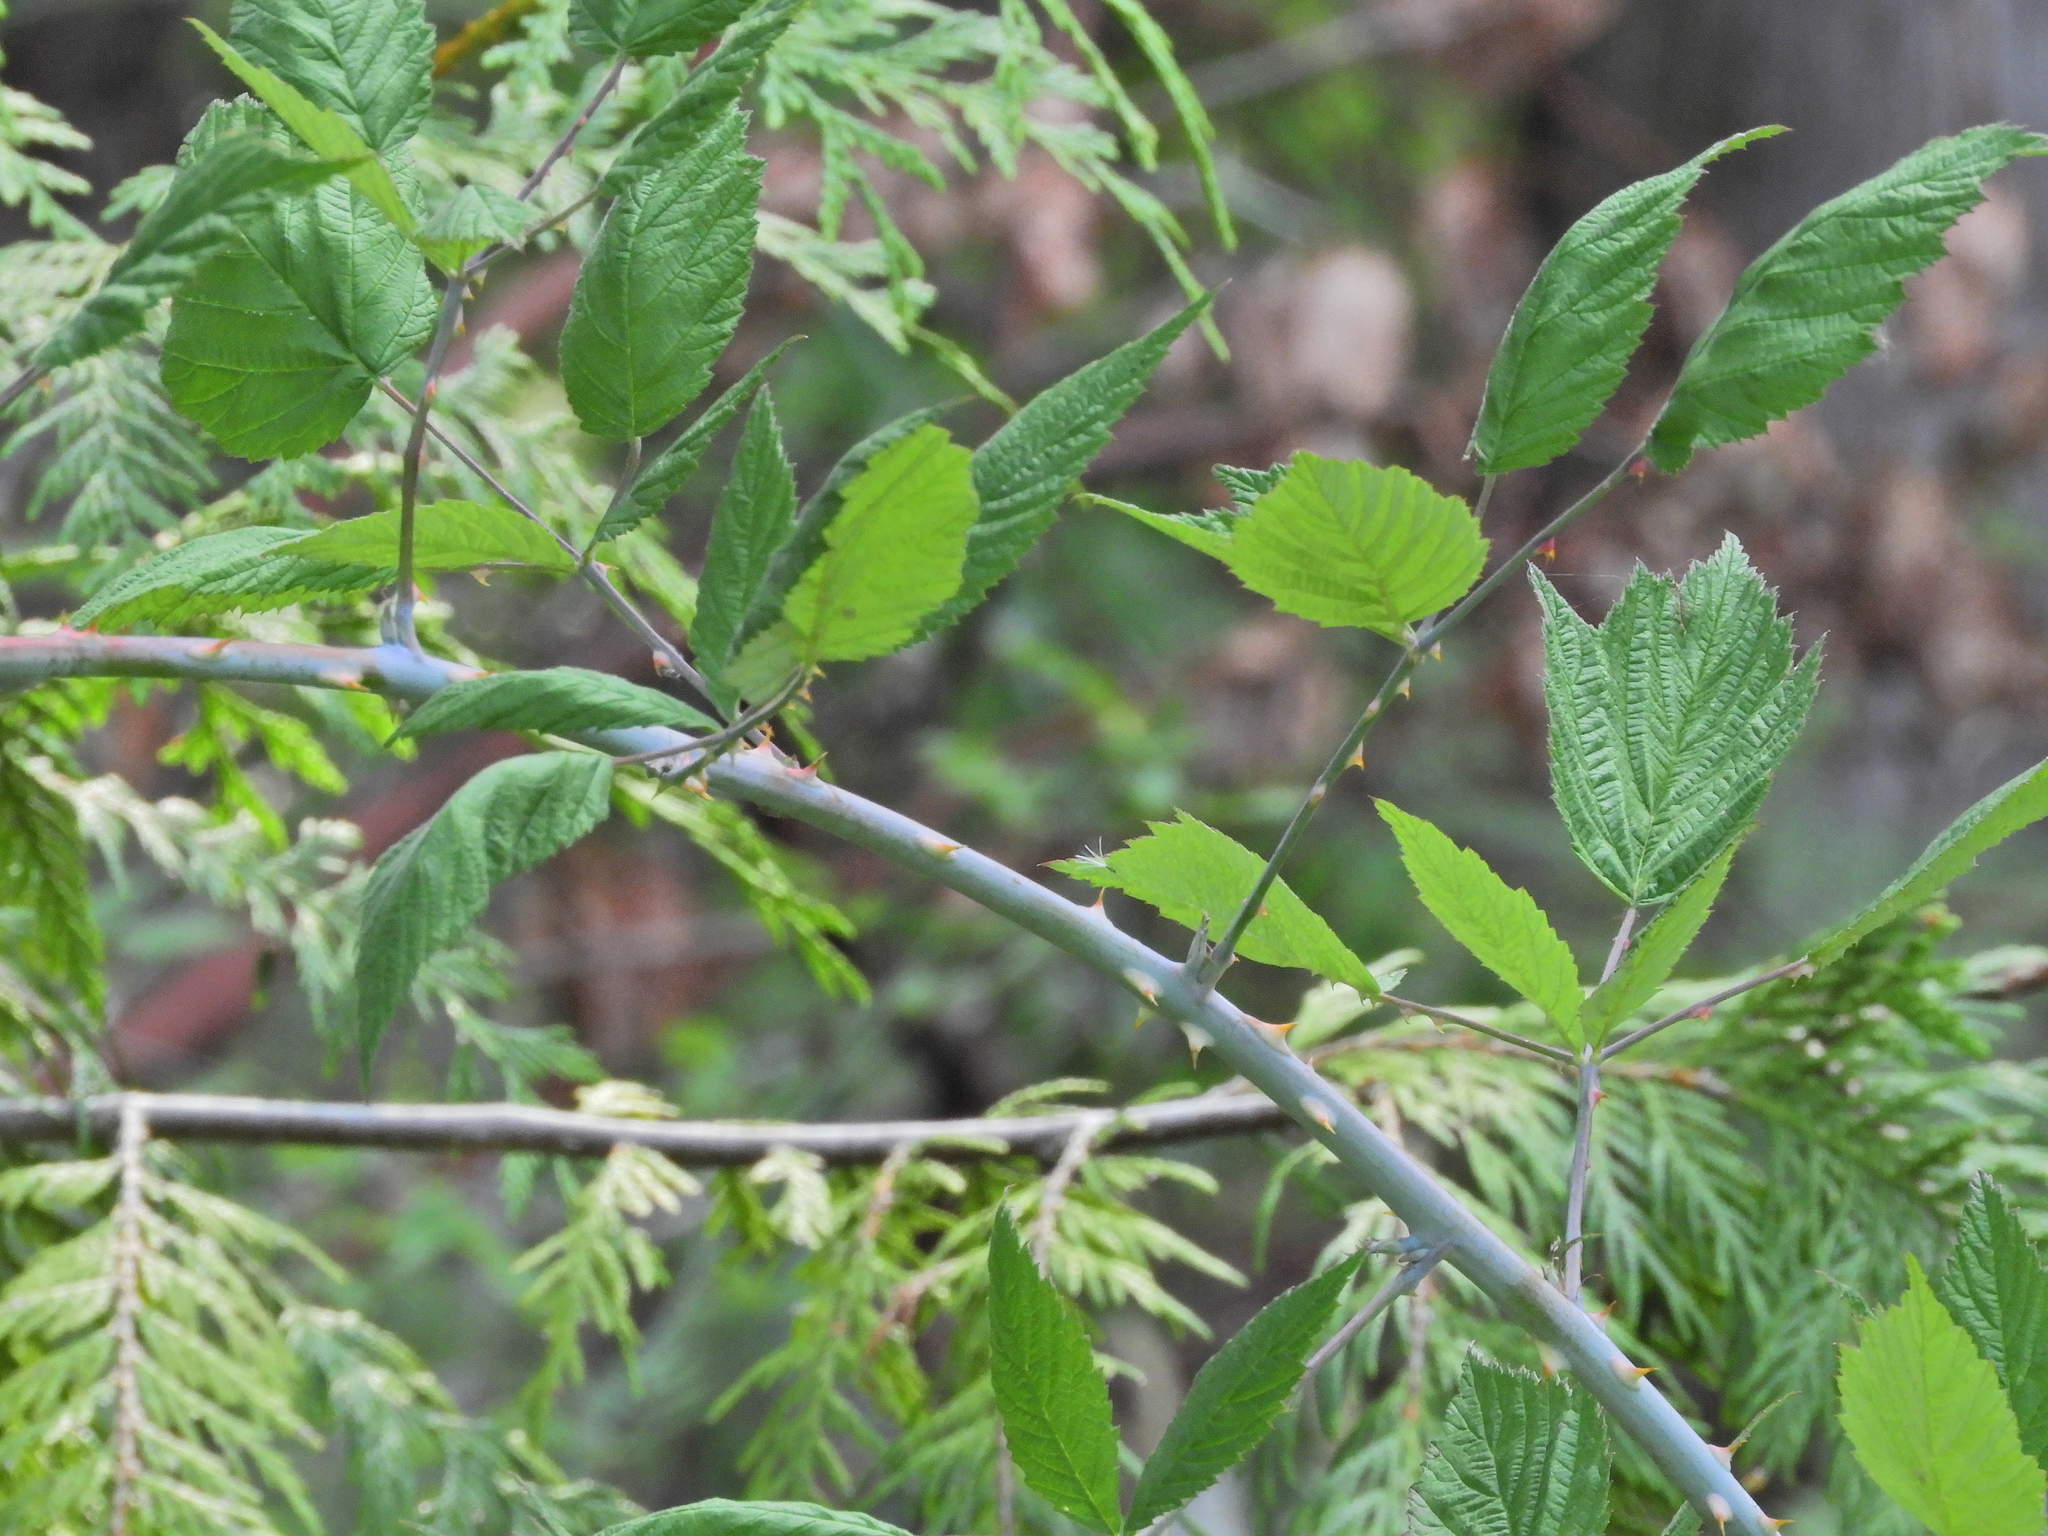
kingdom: Plantae
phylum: Tracheophyta
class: Magnoliopsida
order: Rosales
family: Rosaceae
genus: Rubus
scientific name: Rubus leucodermis
